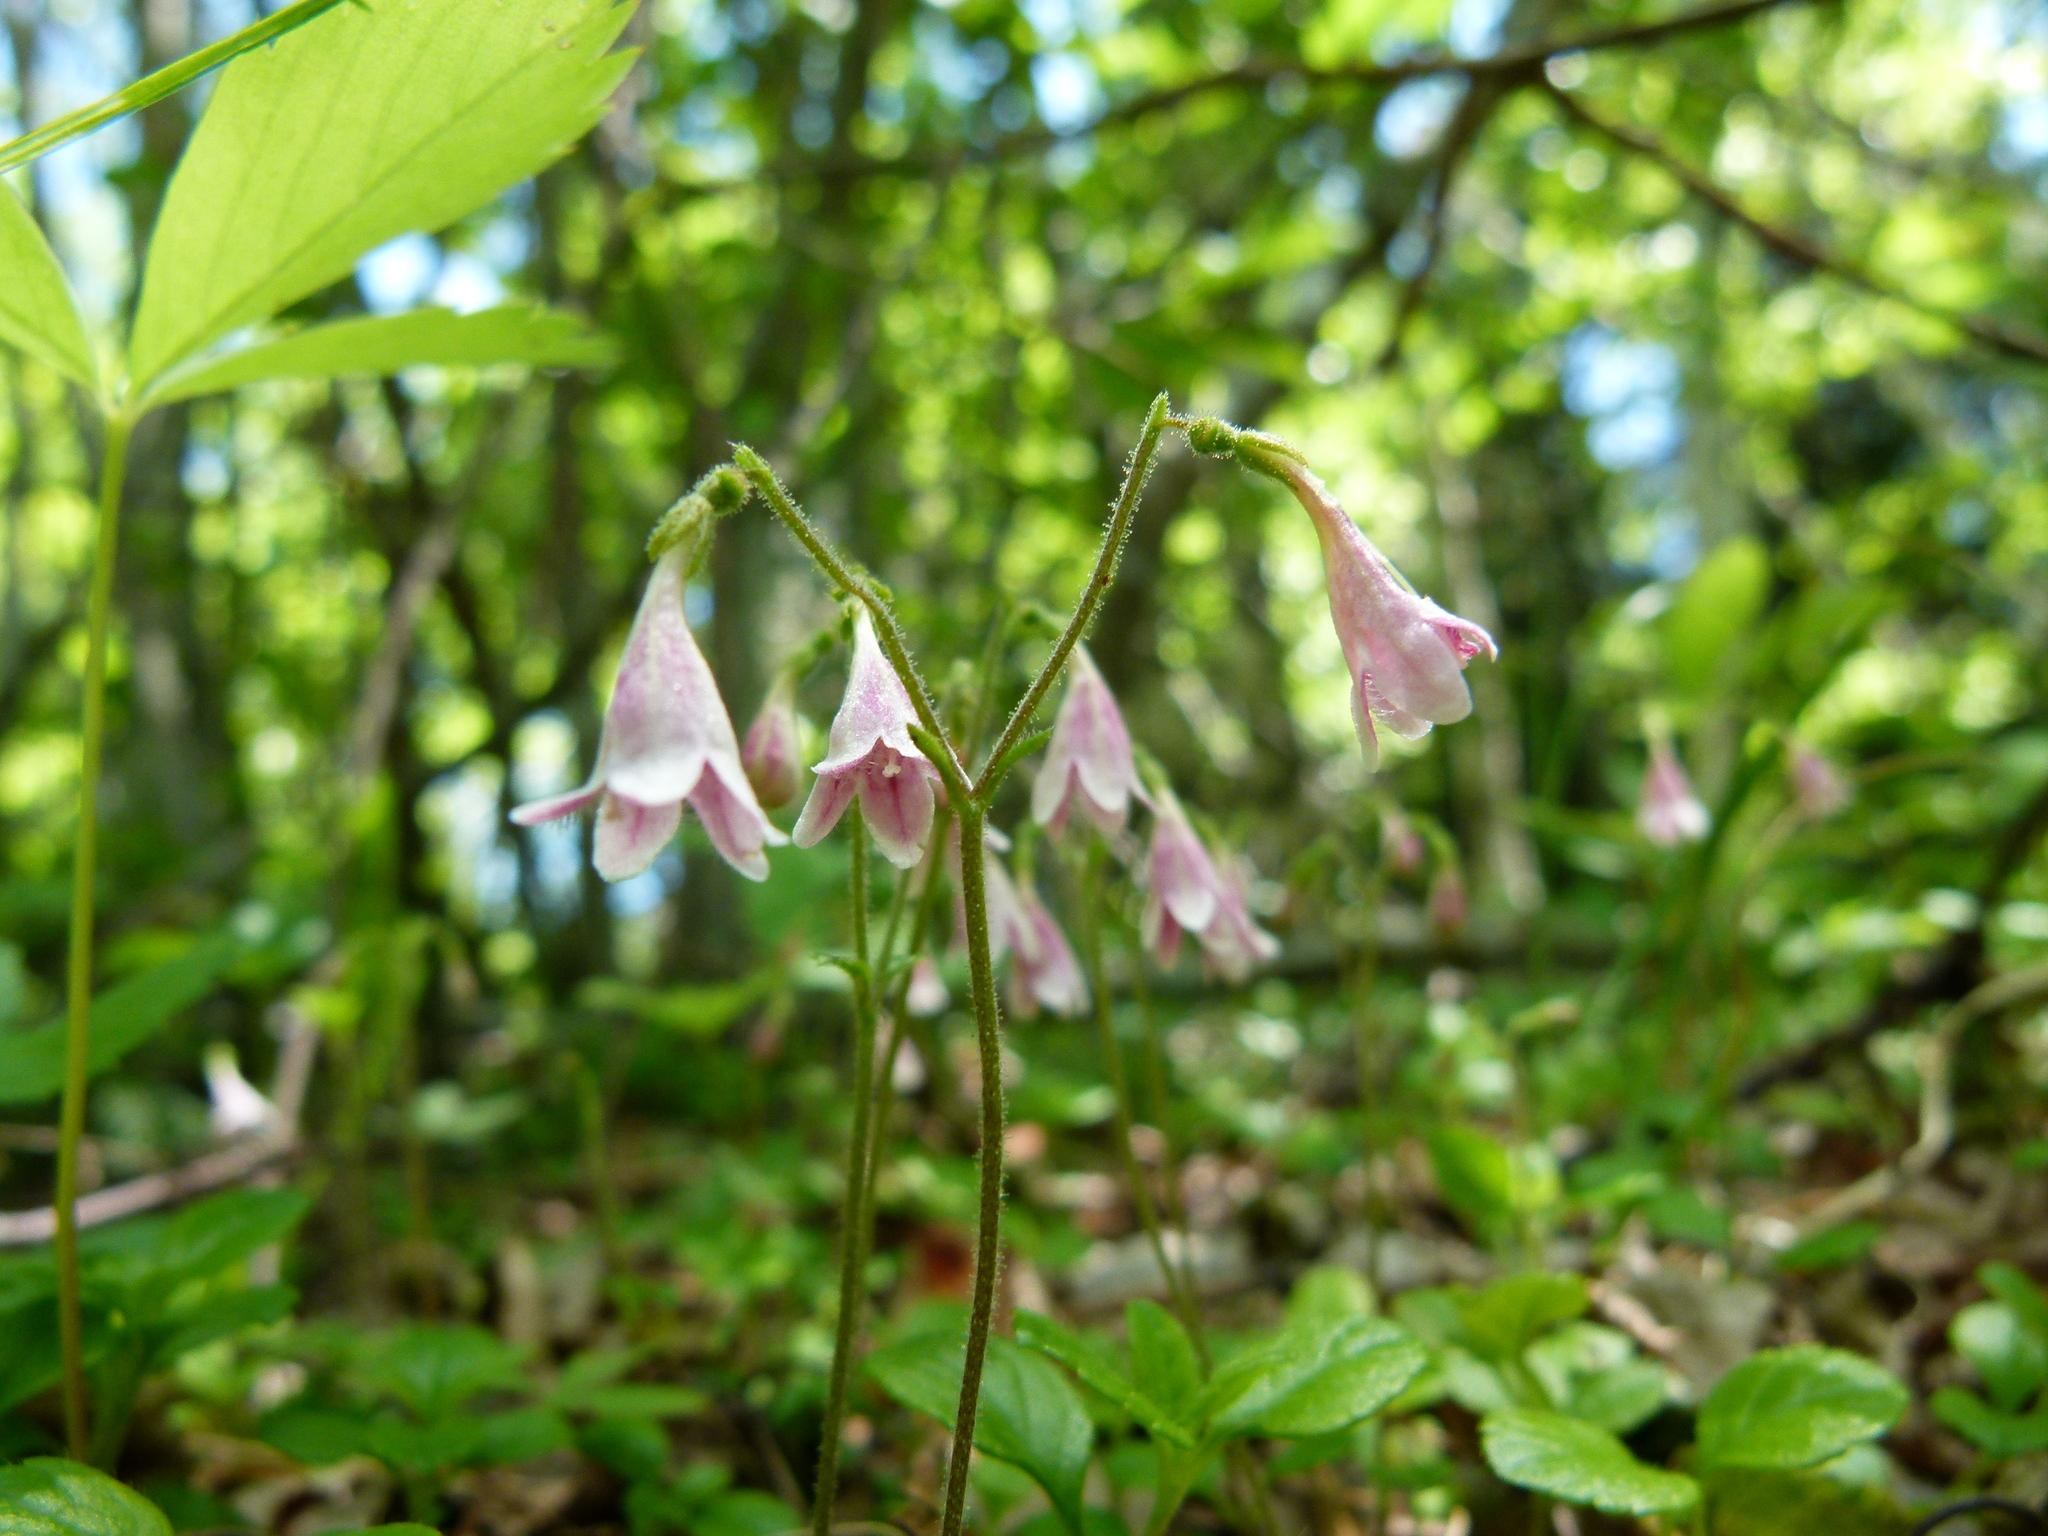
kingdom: Plantae
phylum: Tracheophyta
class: Magnoliopsida
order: Dipsacales
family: Caprifoliaceae
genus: Linnaea
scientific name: Linnaea borealis
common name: Twinflower
